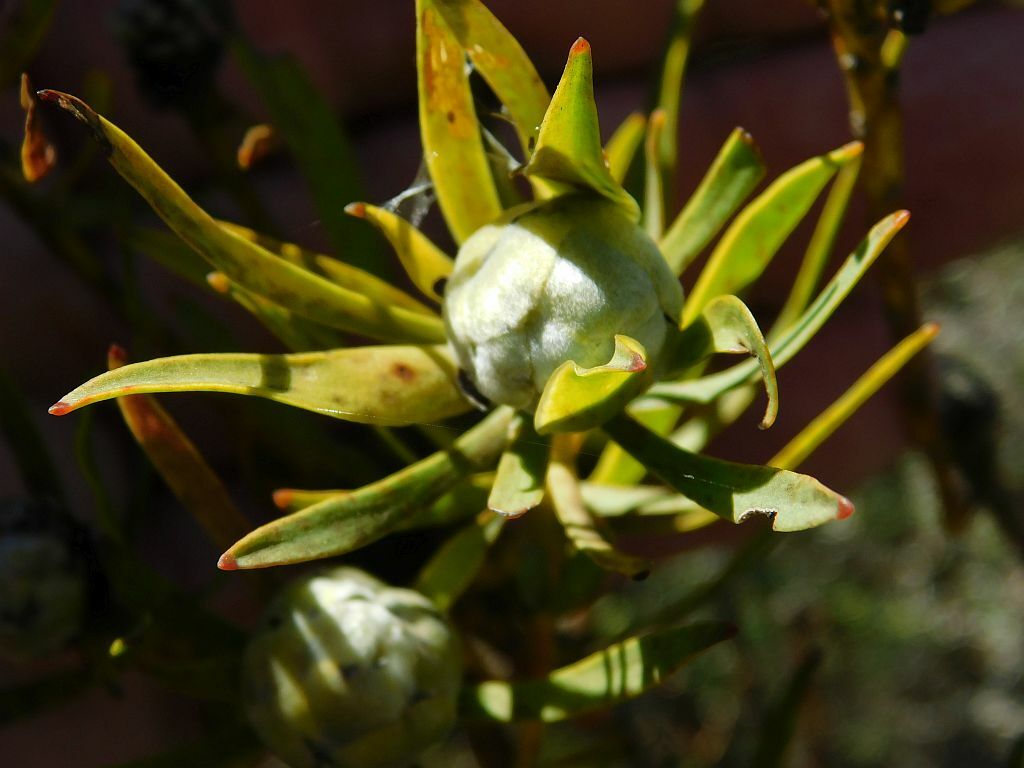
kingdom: Plantae
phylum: Tracheophyta
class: Magnoliopsida
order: Proteales
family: Proteaceae
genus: Leucadendron
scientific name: Leucadendron salignum
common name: Common sunshine conebush
